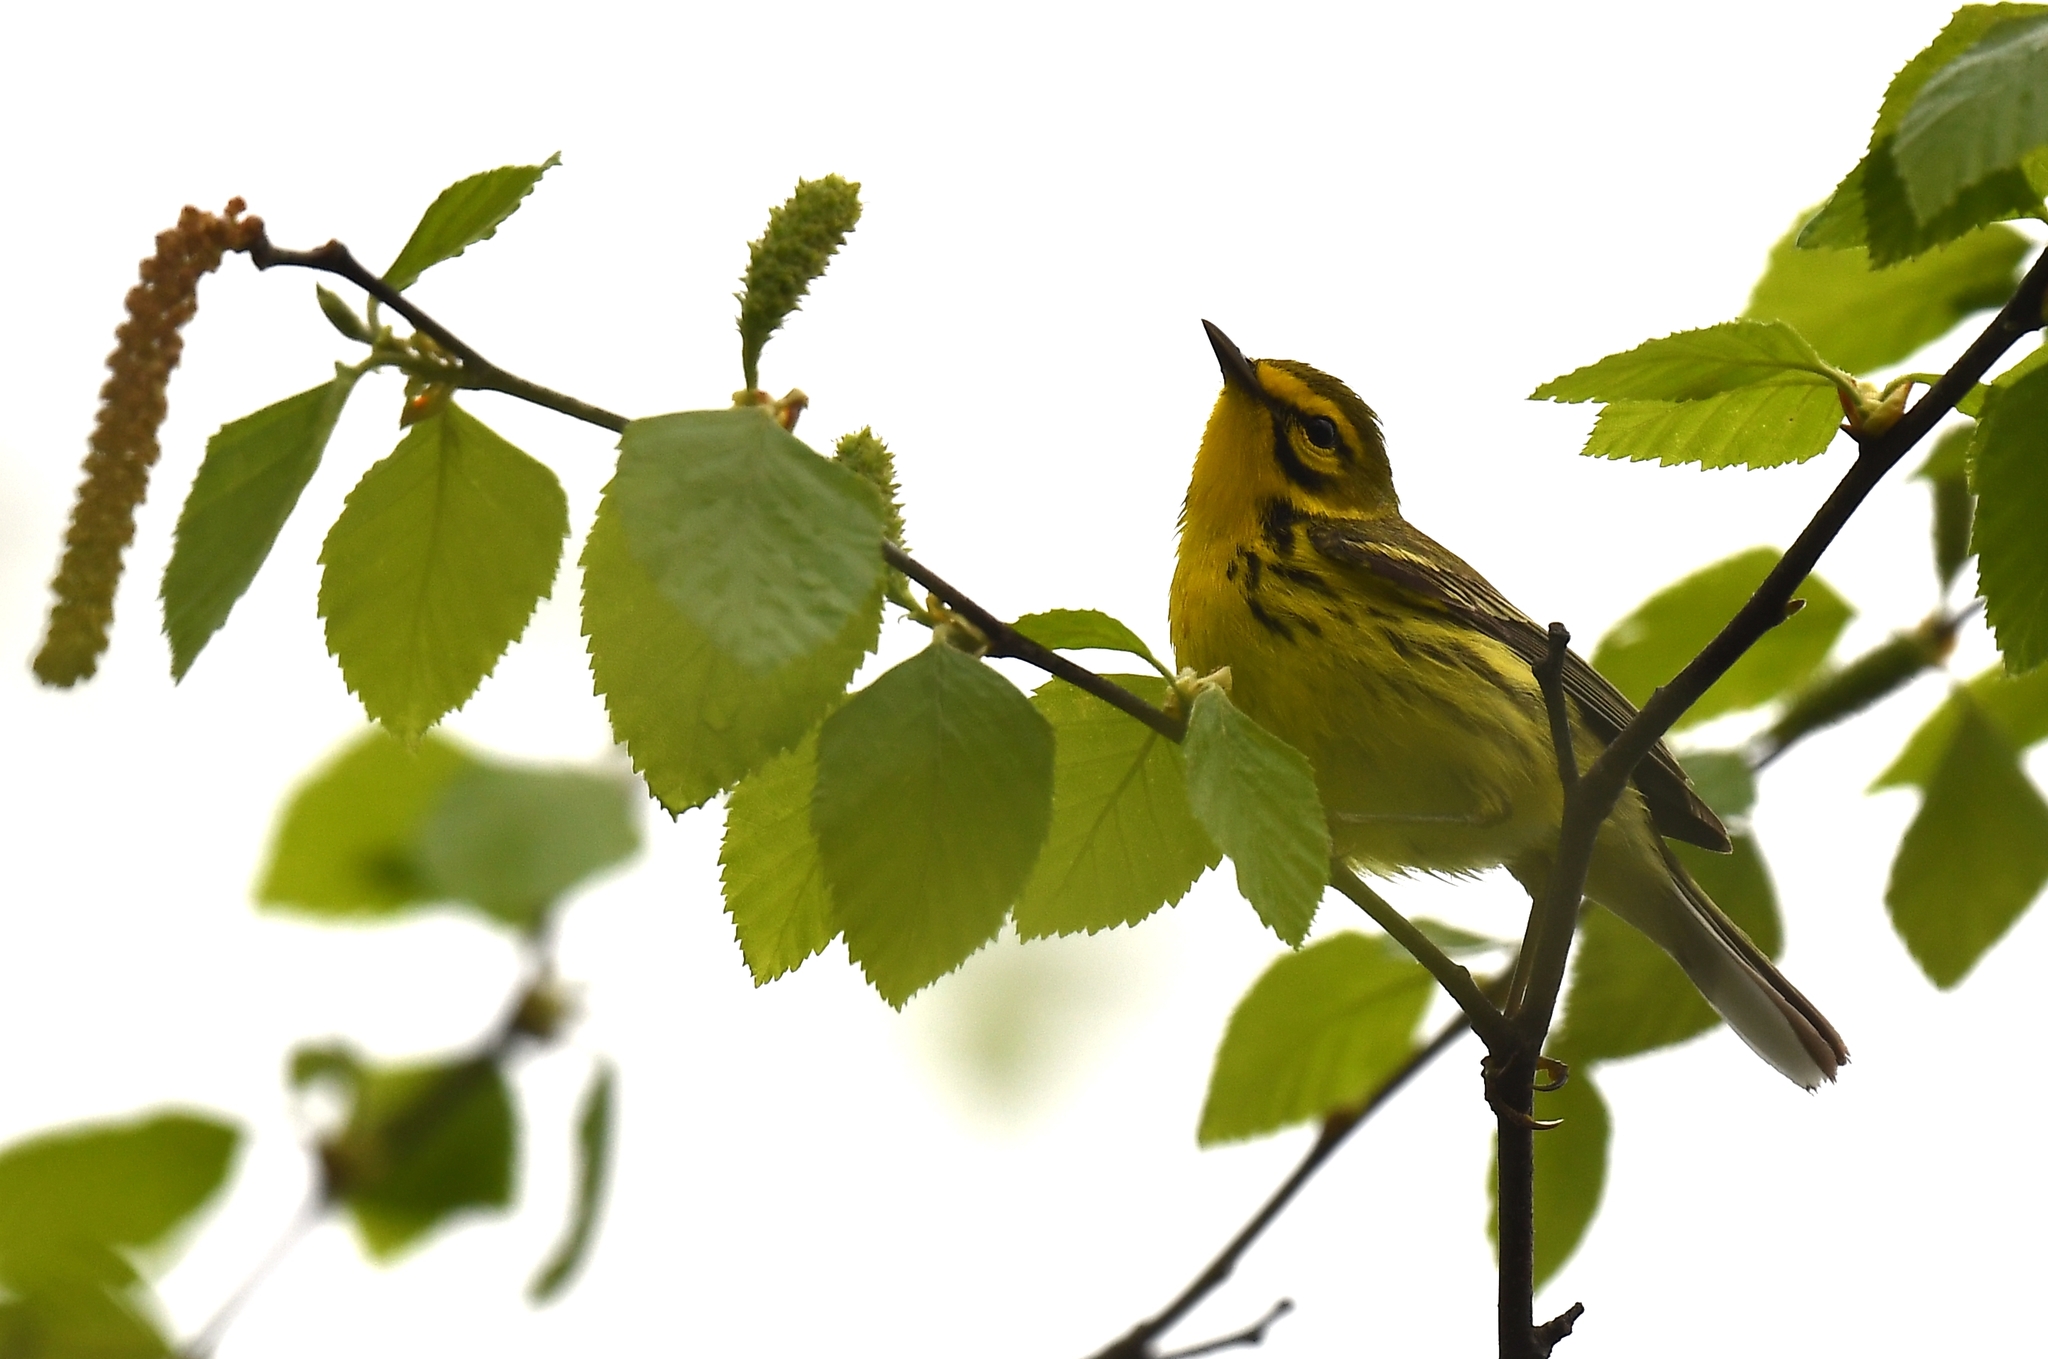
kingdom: Animalia
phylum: Chordata
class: Aves
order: Passeriformes
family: Parulidae
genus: Setophaga
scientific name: Setophaga discolor
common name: Prairie warbler
